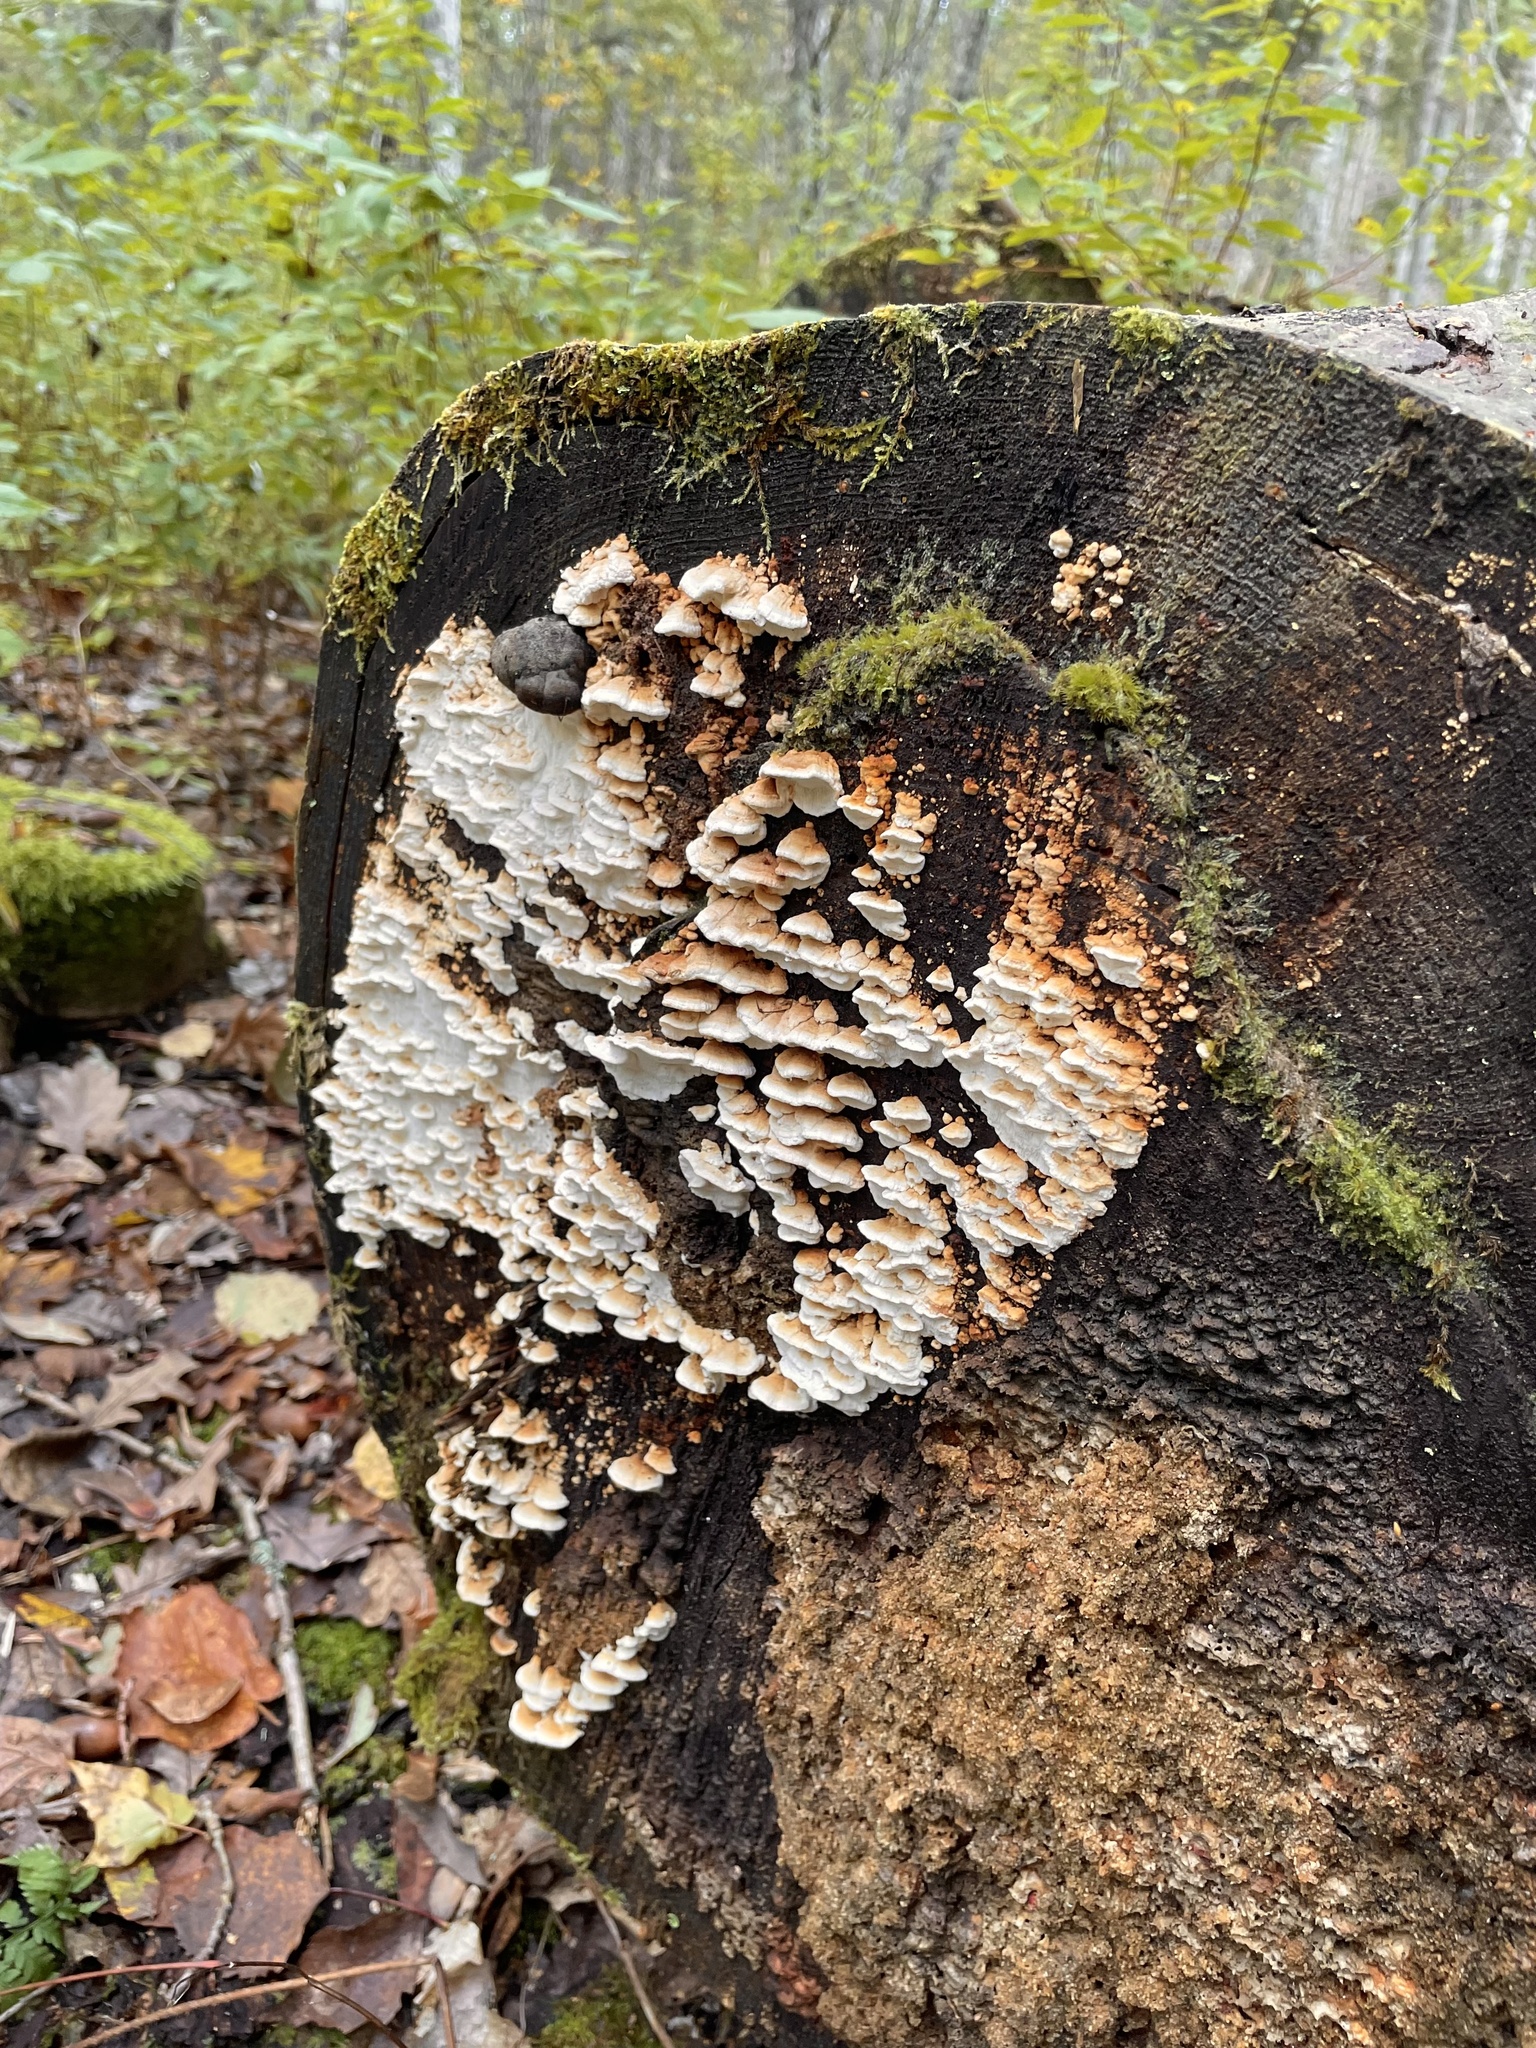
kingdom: Fungi
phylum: Basidiomycota
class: Agaricomycetes
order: Polyporales
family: Fomitopsidaceae
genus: Neoantrodia
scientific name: Neoantrodia serialis
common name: Serried porecrust
